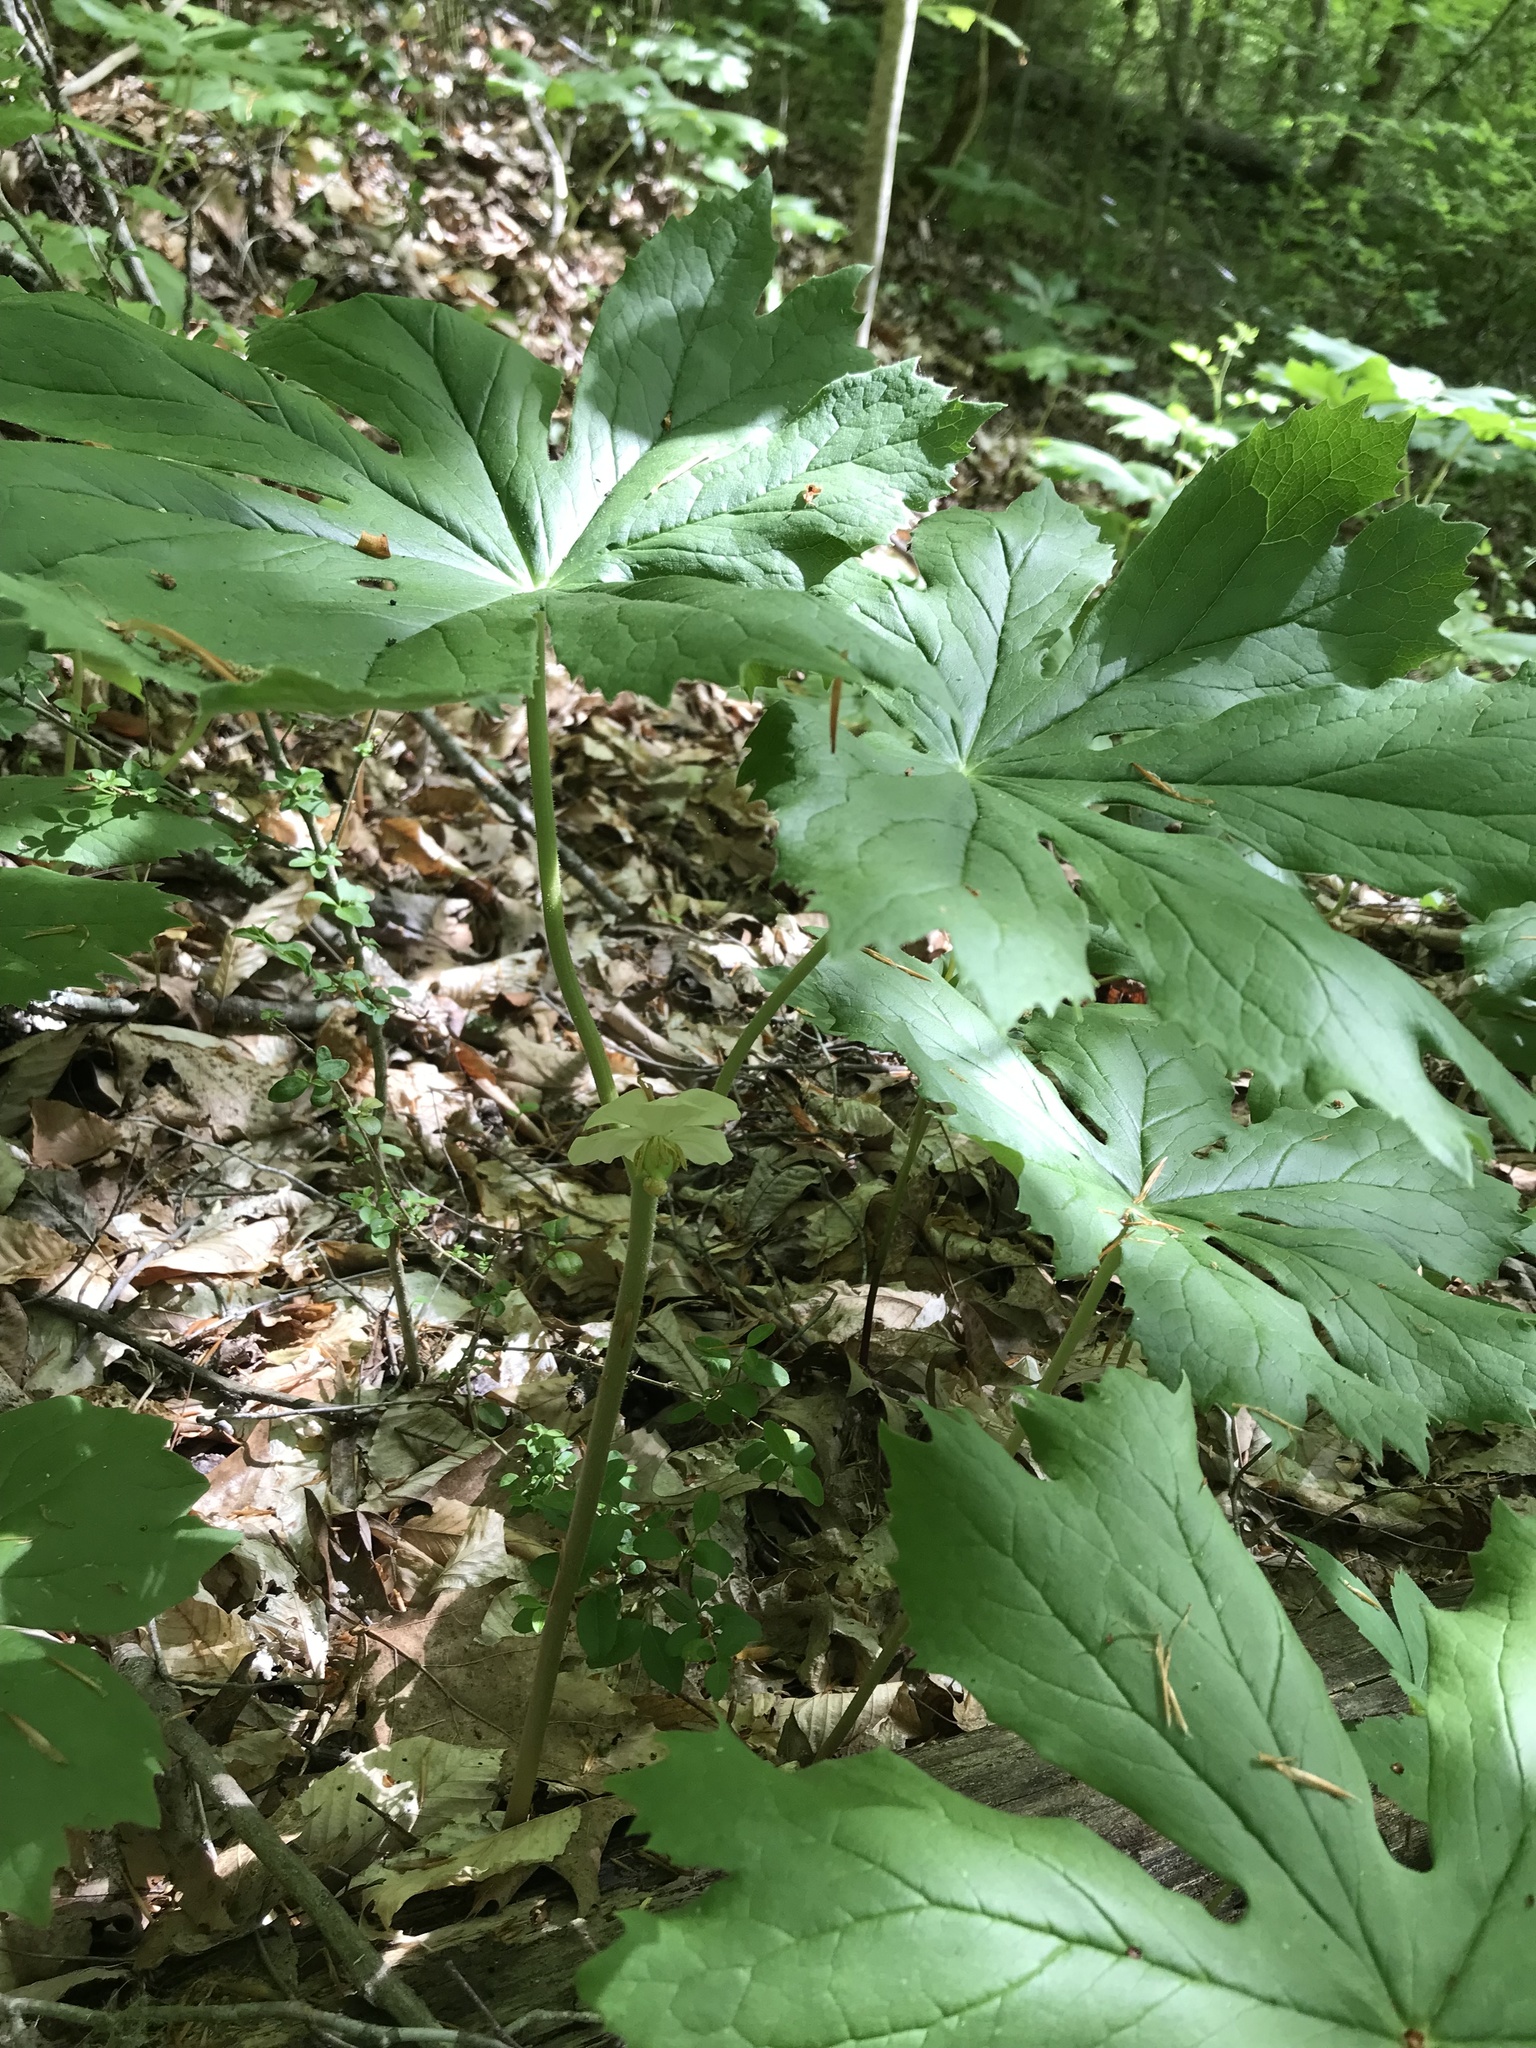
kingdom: Plantae
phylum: Tracheophyta
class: Magnoliopsida
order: Ranunculales
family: Berberidaceae
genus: Podophyllum
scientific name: Podophyllum peltatum
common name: Wild mandrake
